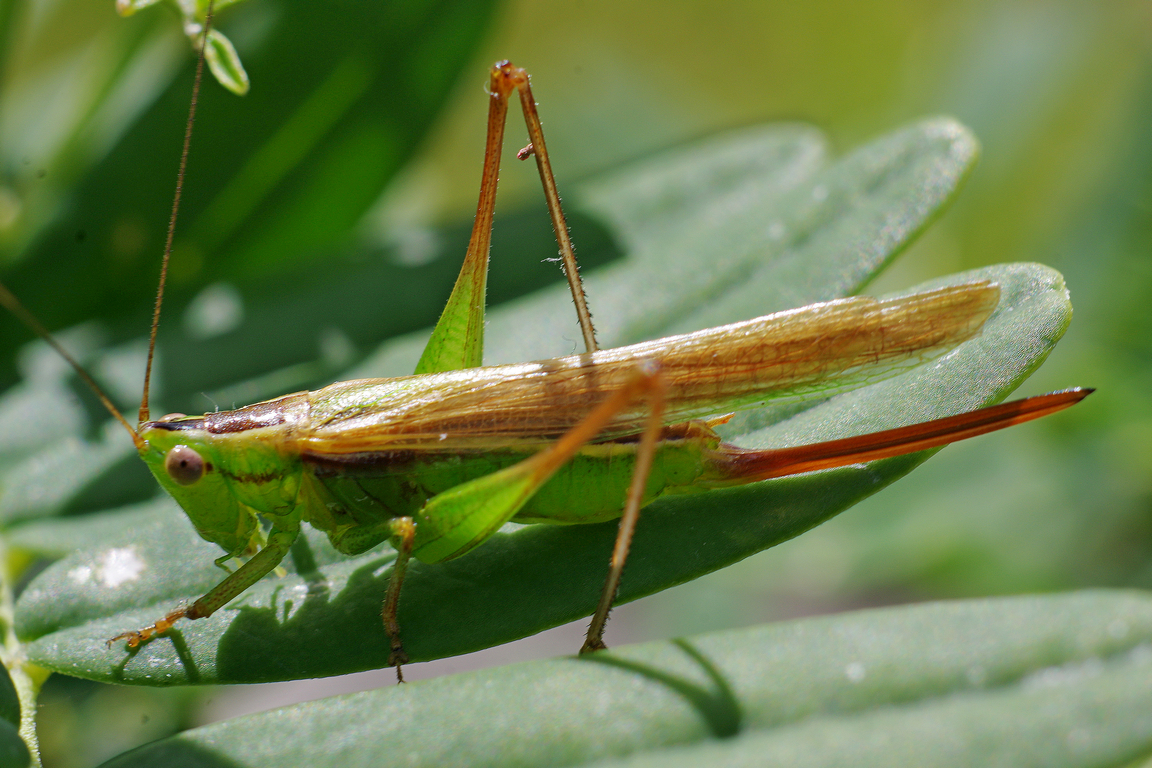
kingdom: Animalia
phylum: Arthropoda
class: Insecta
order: Orthoptera
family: Tettigoniidae
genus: Conocephalus
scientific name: Conocephalus bilineatus
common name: Small meadow katydid
